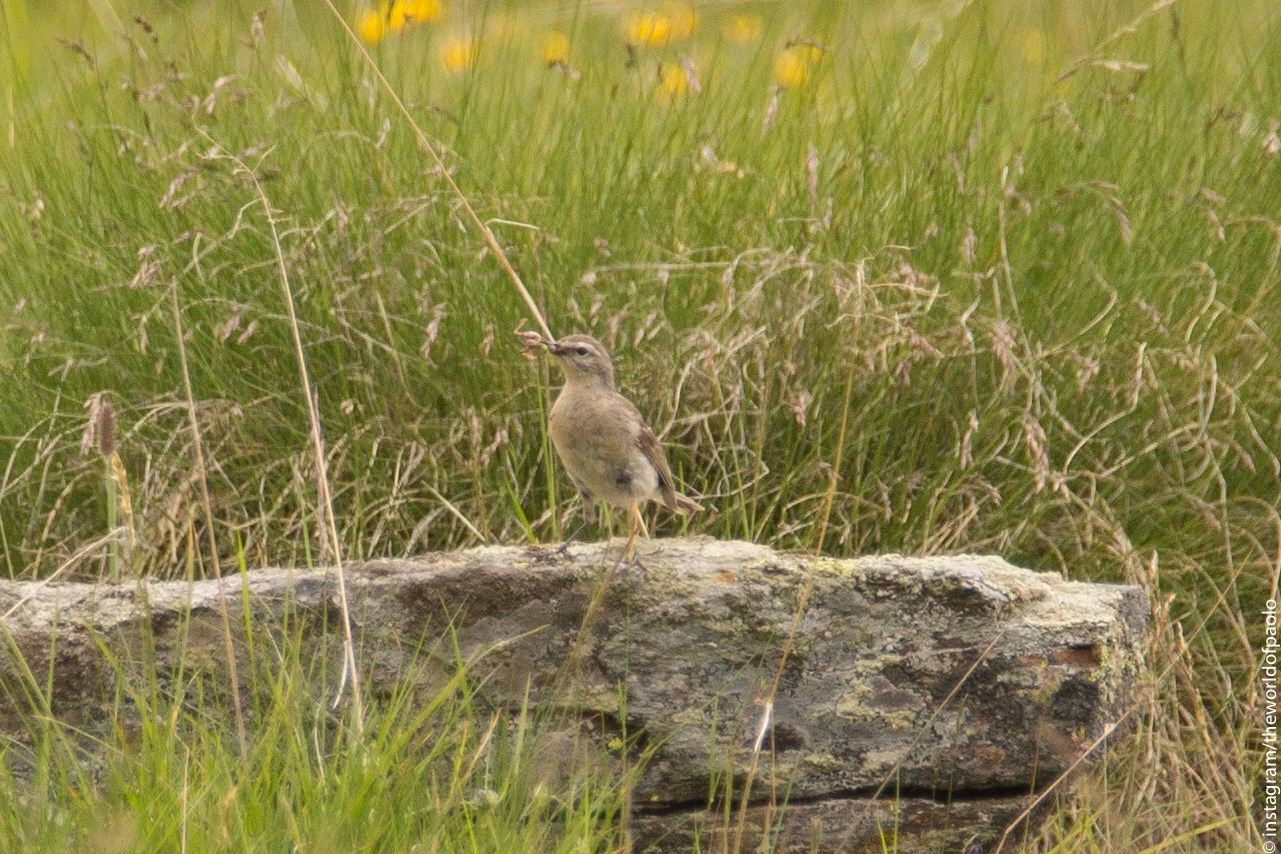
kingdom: Animalia
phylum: Chordata
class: Aves
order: Passeriformes
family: Motacillidae
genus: Anthus
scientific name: Anthus spinoletta
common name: Water pipit
